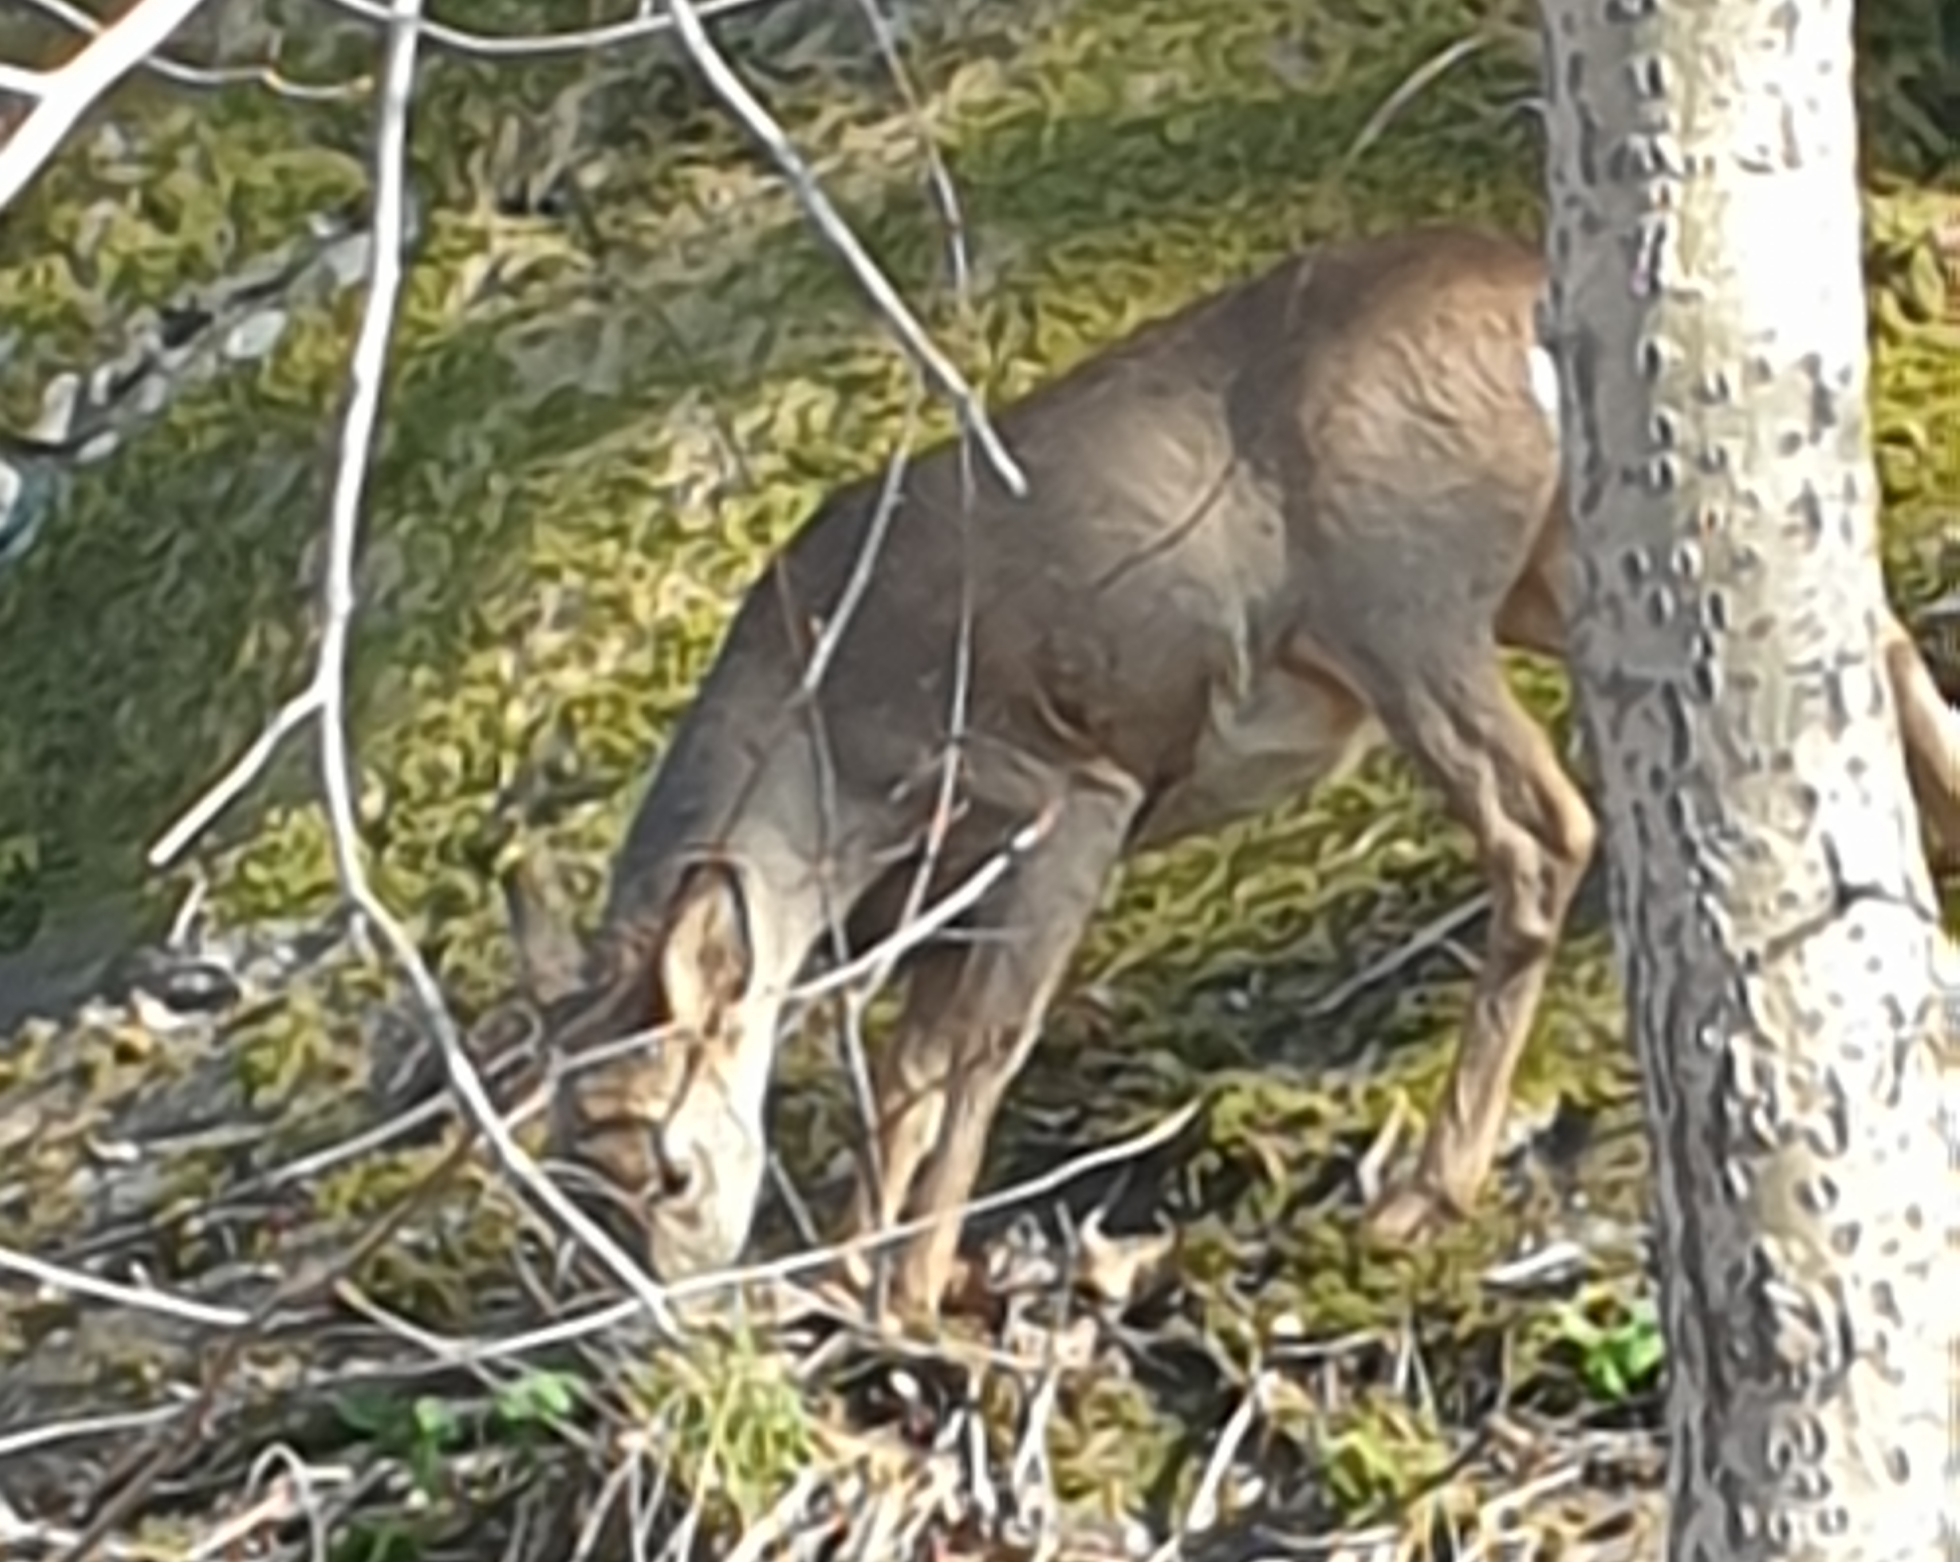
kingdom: Animalia
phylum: Chordata
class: Mammalia
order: Artiodactyla
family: Cervidae
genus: Capreolus
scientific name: Capreolus capreolus
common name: Western roe deer
